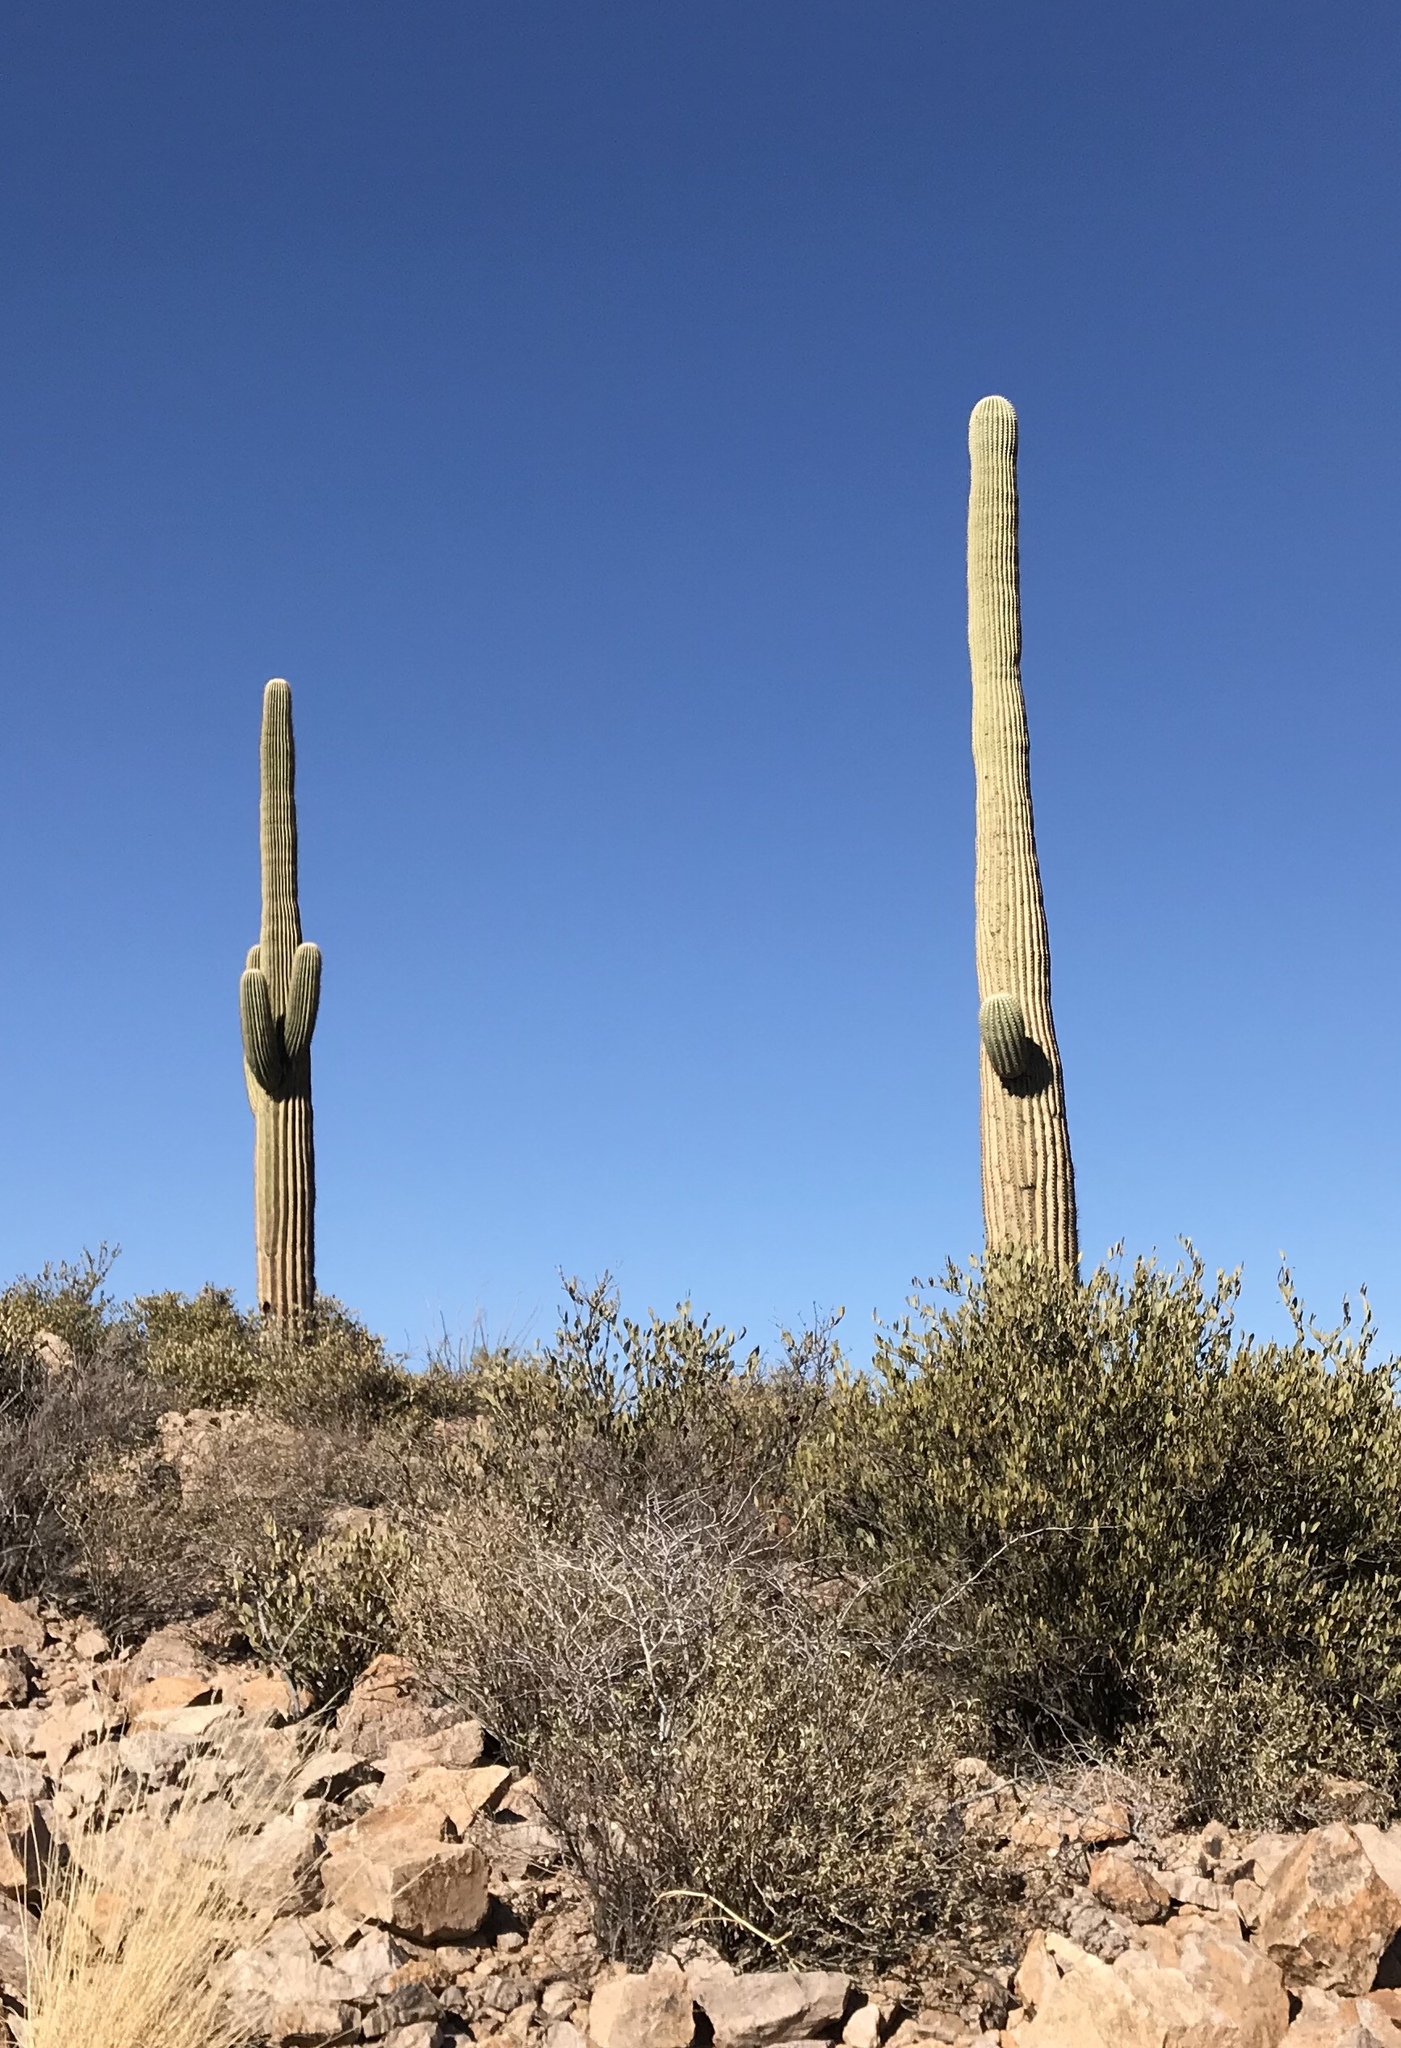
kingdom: Plantae
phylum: Tracheophyta
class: Magnoliopsida
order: Caryophyllales
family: Cactaceae
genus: Carnegiea
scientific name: Carnegiea gigantea
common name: Saguaro
